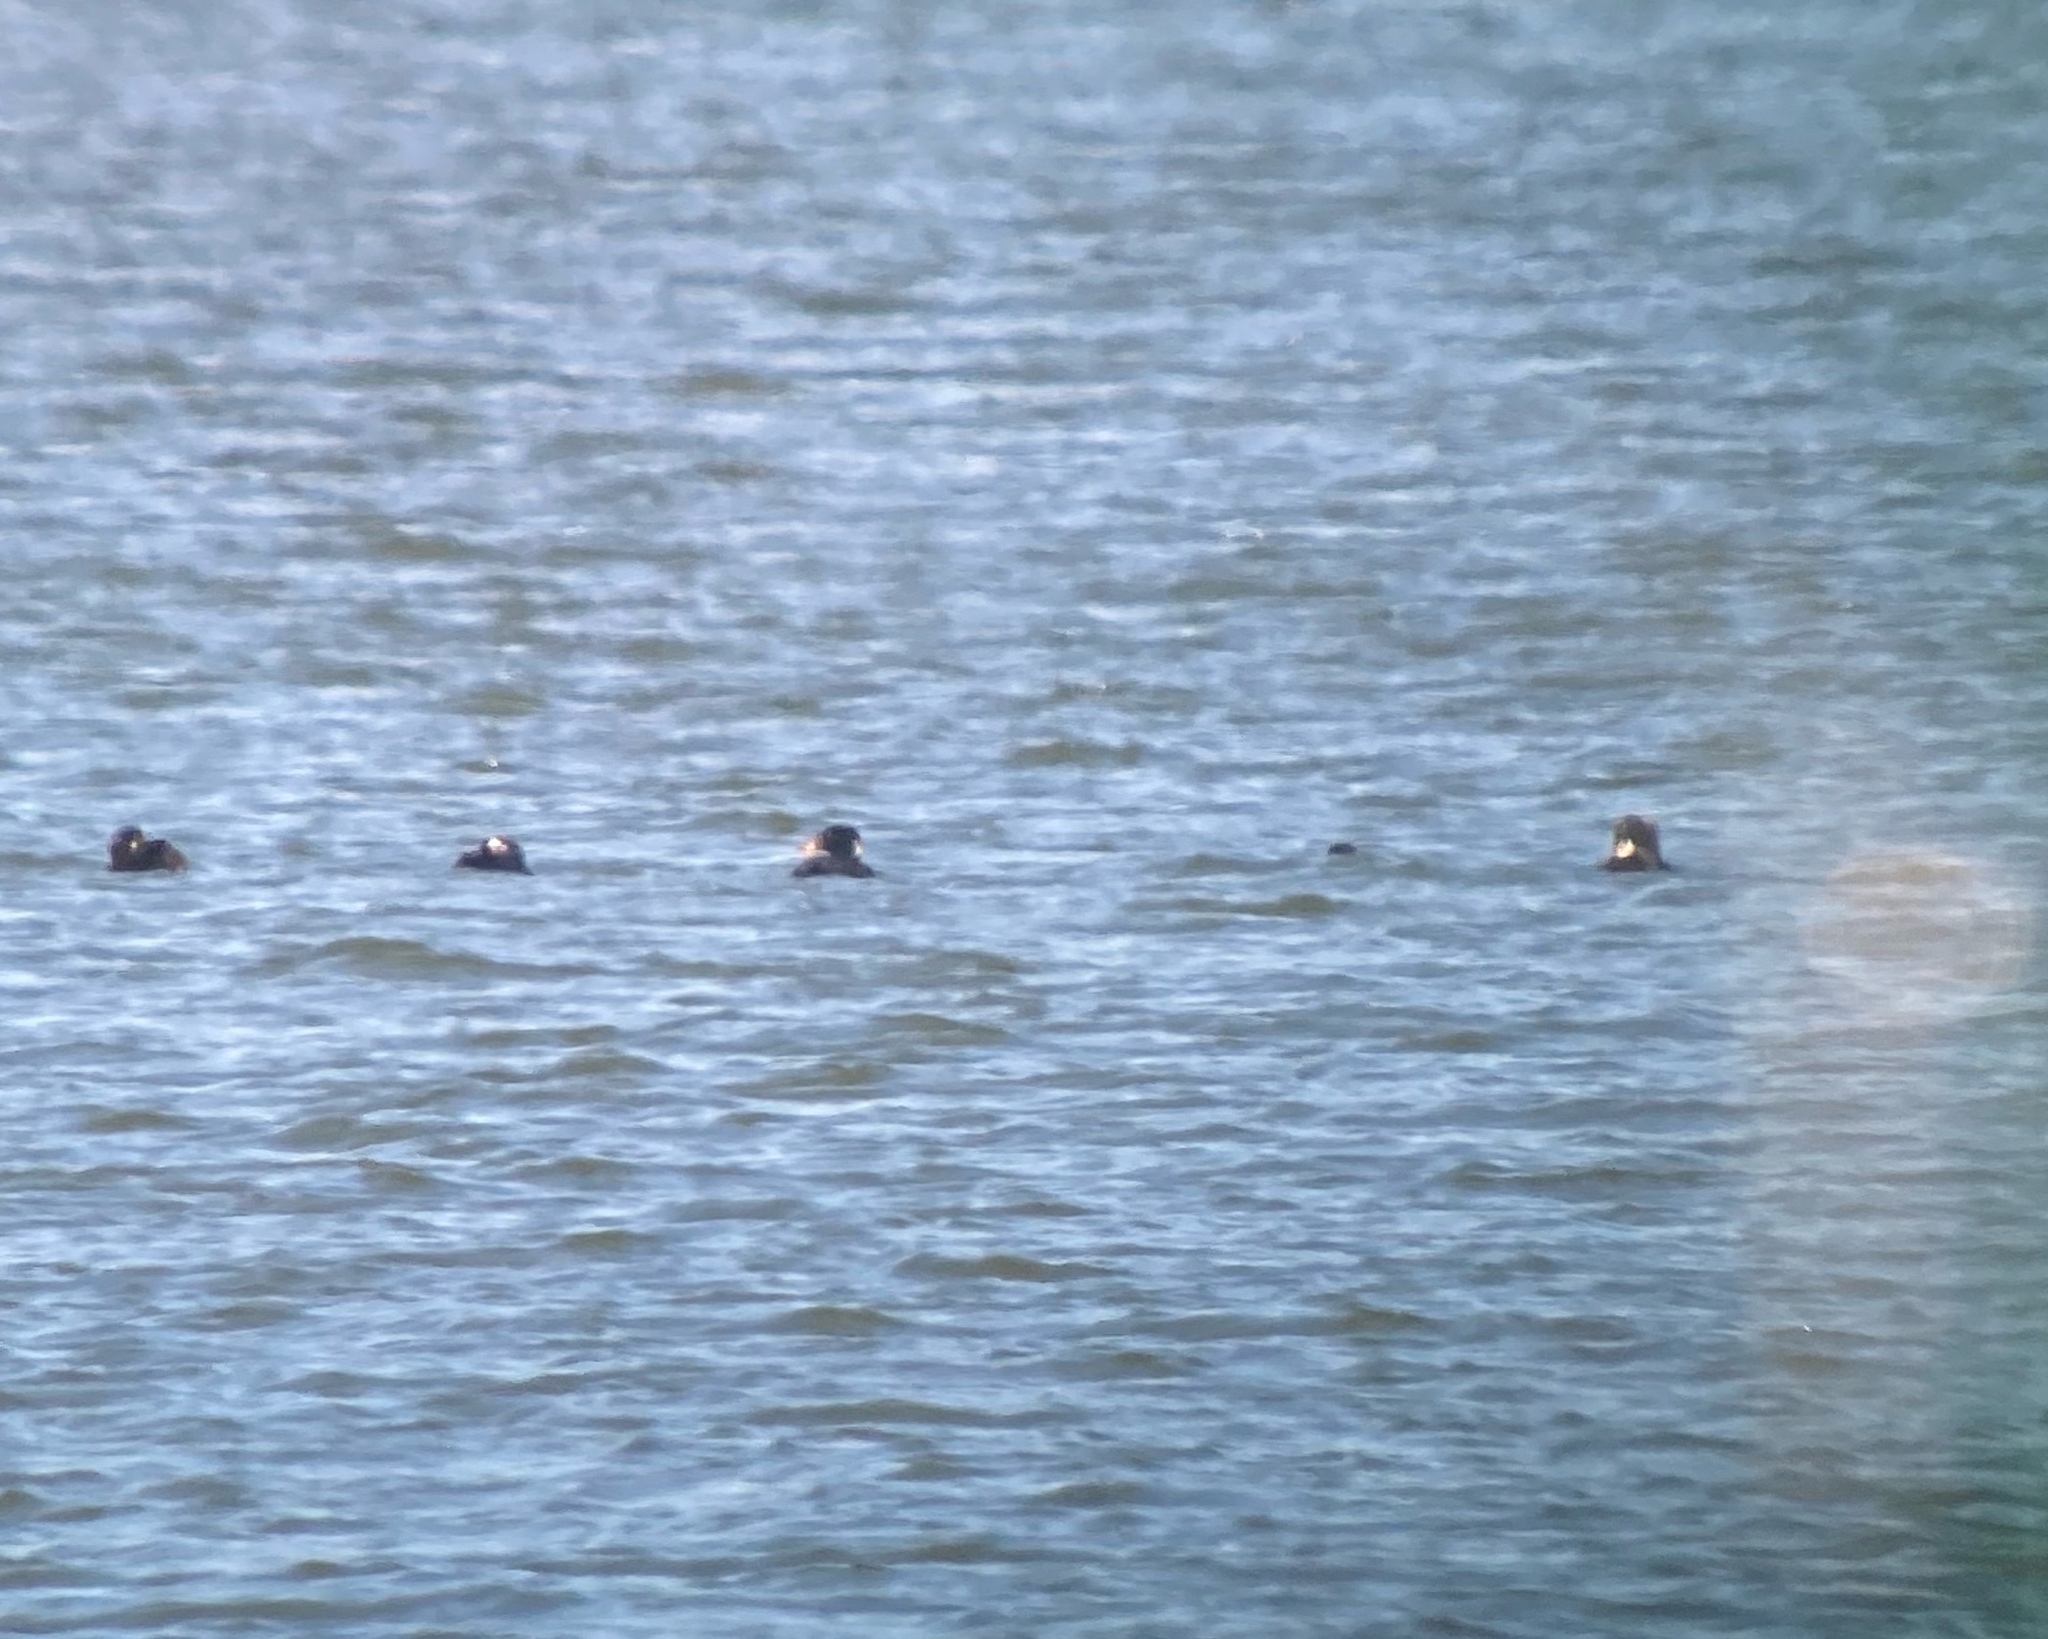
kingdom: Animalia
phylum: Chordata
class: Aves
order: Anseriformes
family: Anatidae
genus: Melanitta
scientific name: Melanitta perspicillata
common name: Surf scoter
